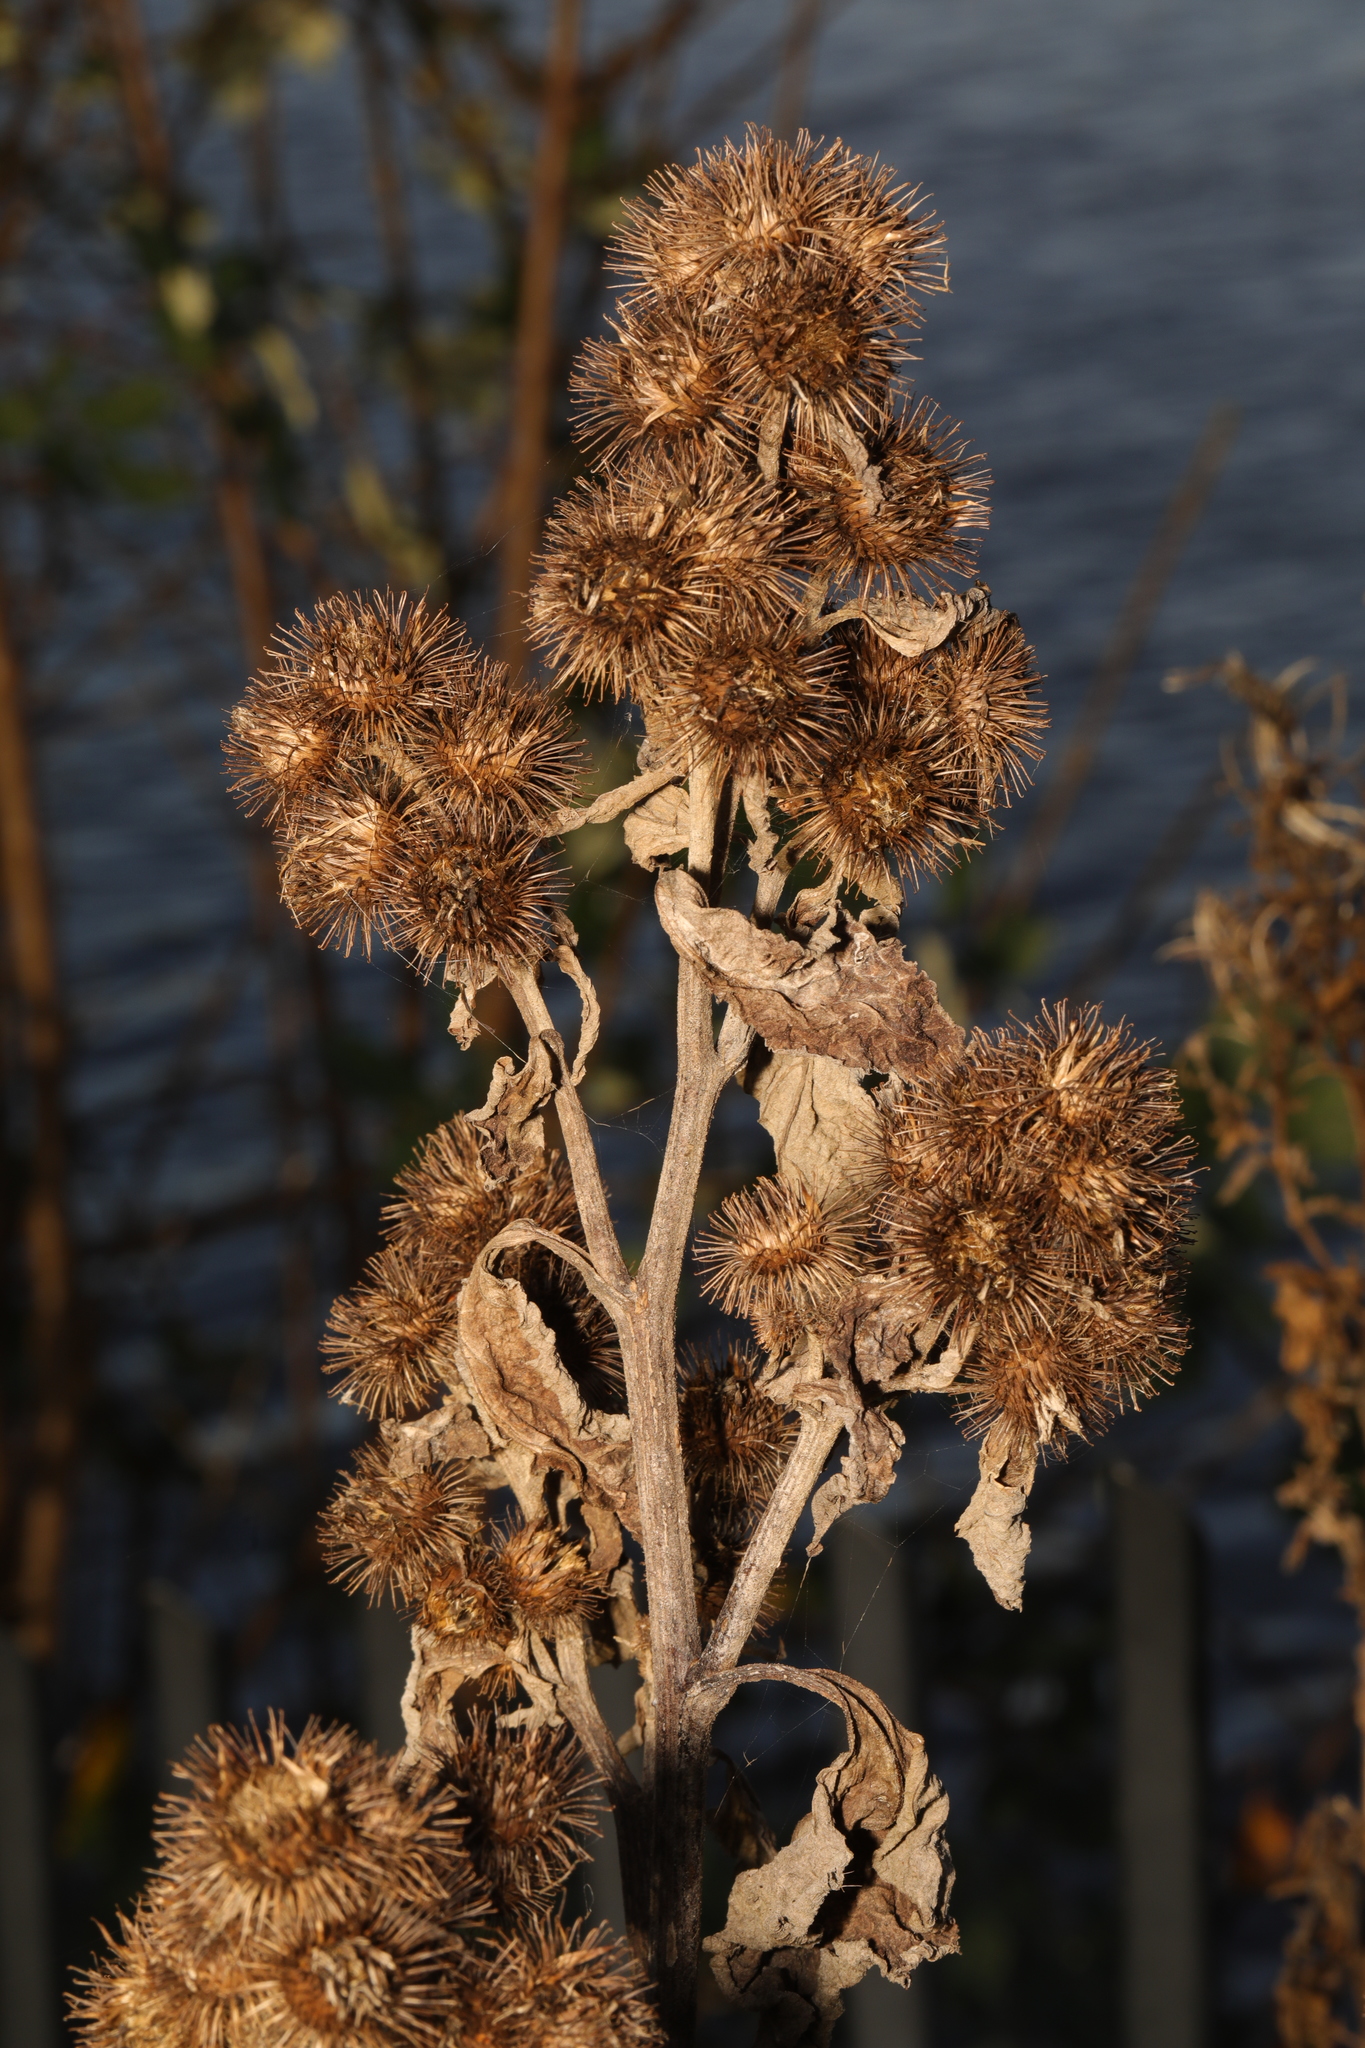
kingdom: Plantae
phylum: Tracheophyta
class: Magnoliopsida
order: Asterales
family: Asteraceae
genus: Arctium
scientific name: Arctium minus
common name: Lesser burdock
